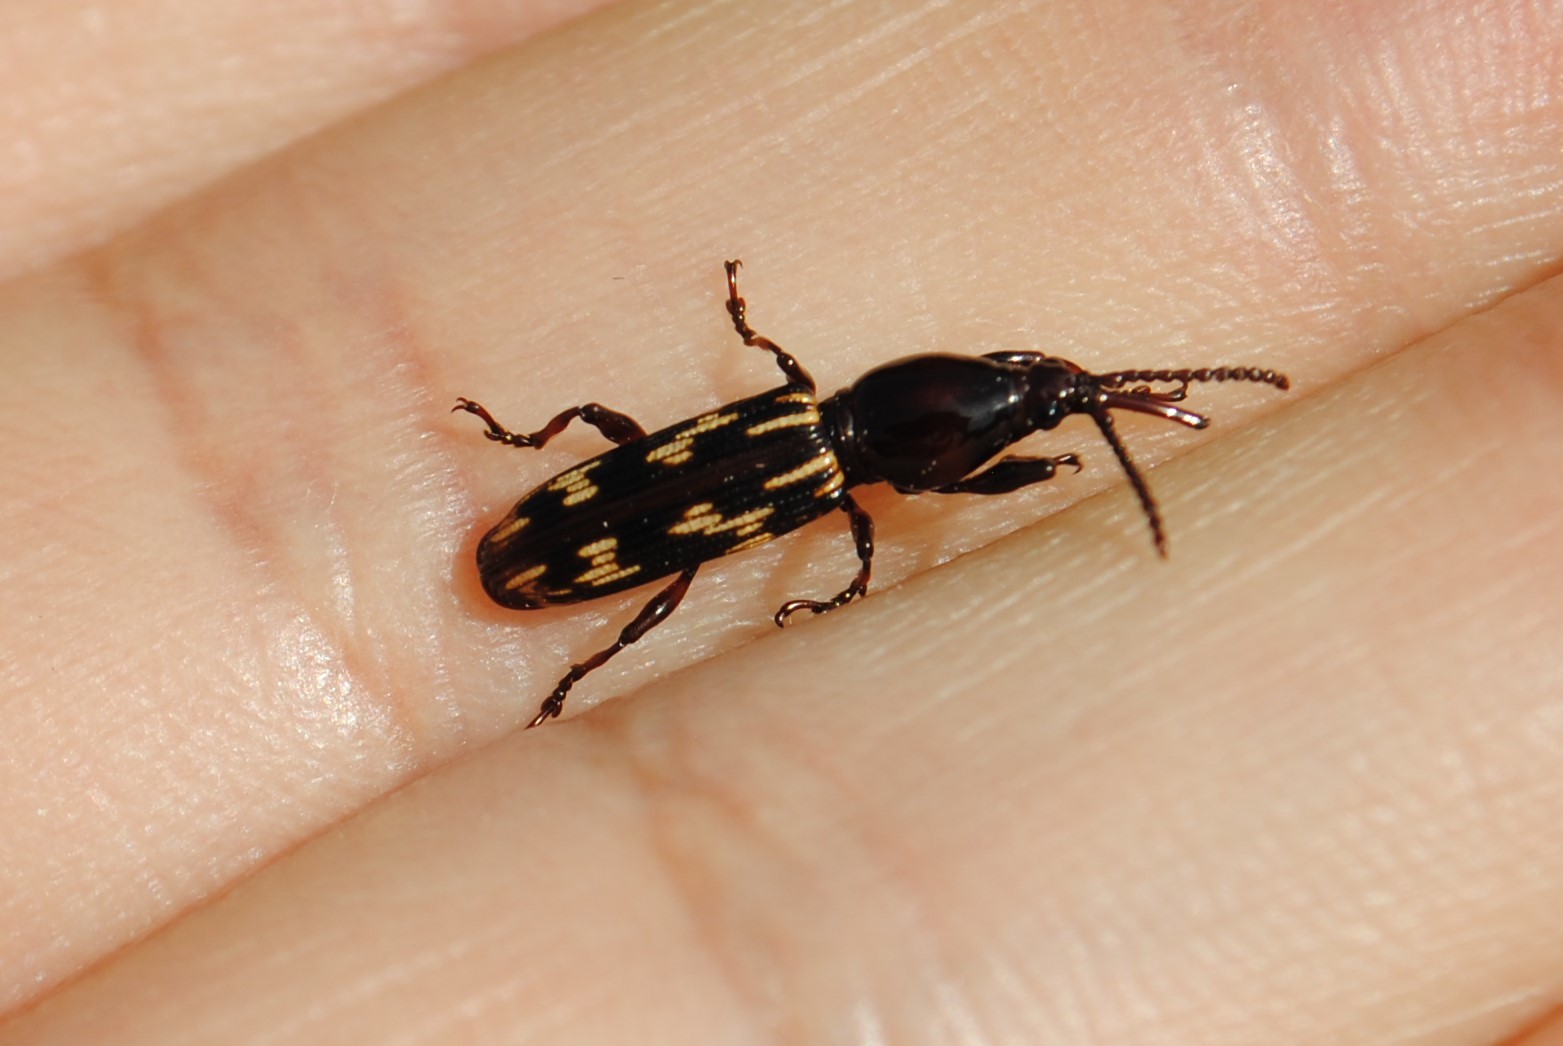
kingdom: Animalia
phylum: Arthropoda
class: Insecta
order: Coleoptera
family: Brentidae
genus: Arrenodes
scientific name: Arrenodes minutus
